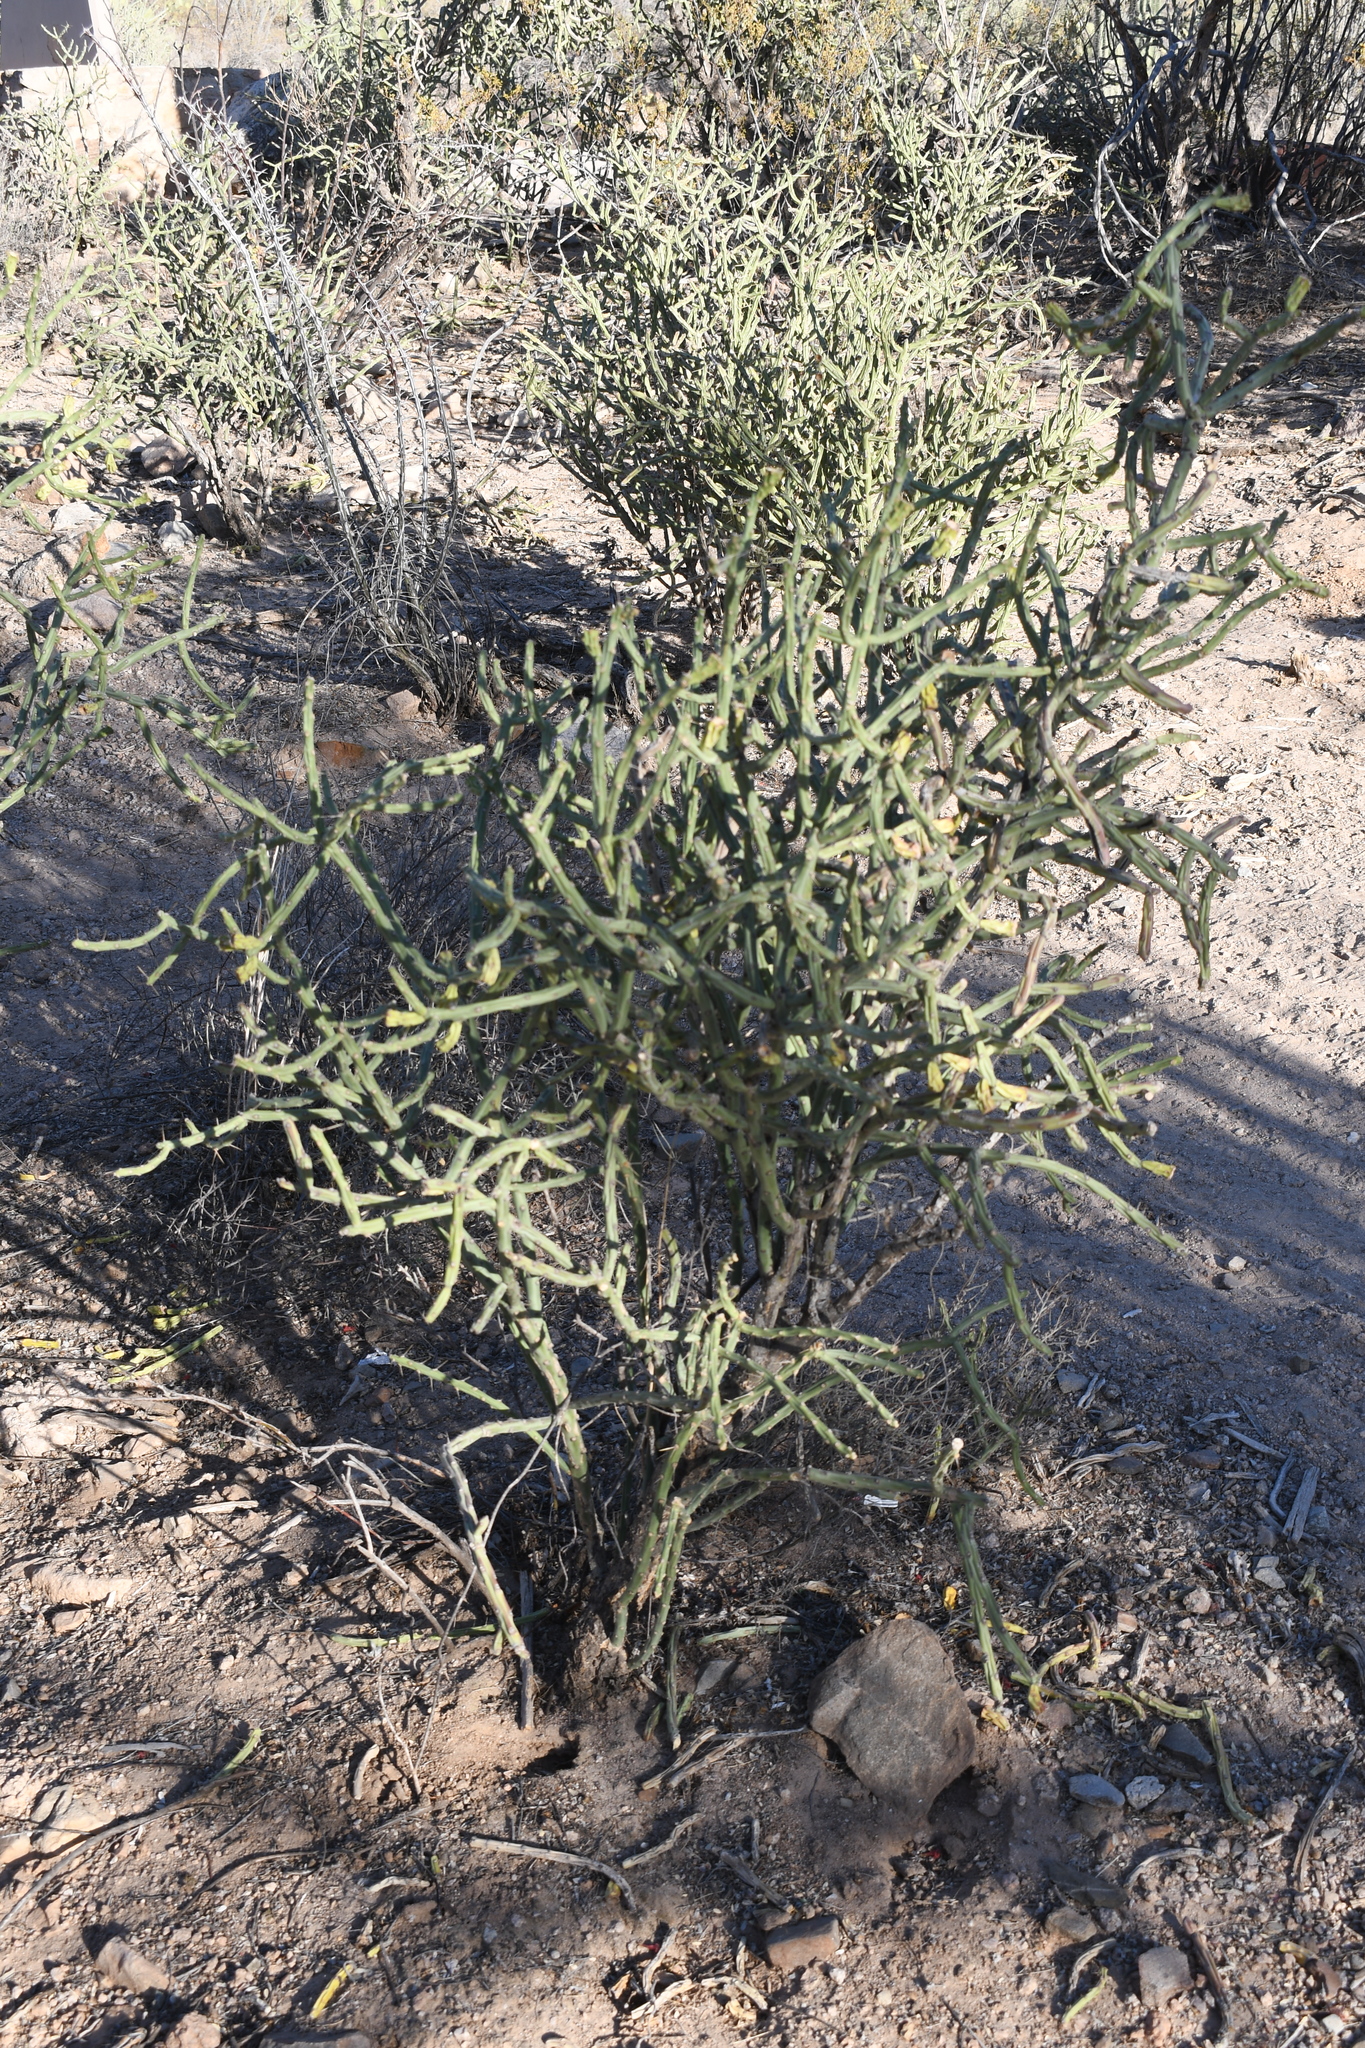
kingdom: Plantae
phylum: Tracheophyta
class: Magnoliopsida
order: Caryophyllales
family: Cactaceae
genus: Cylindropuntia
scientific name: Cylindropuntia arbuscula
